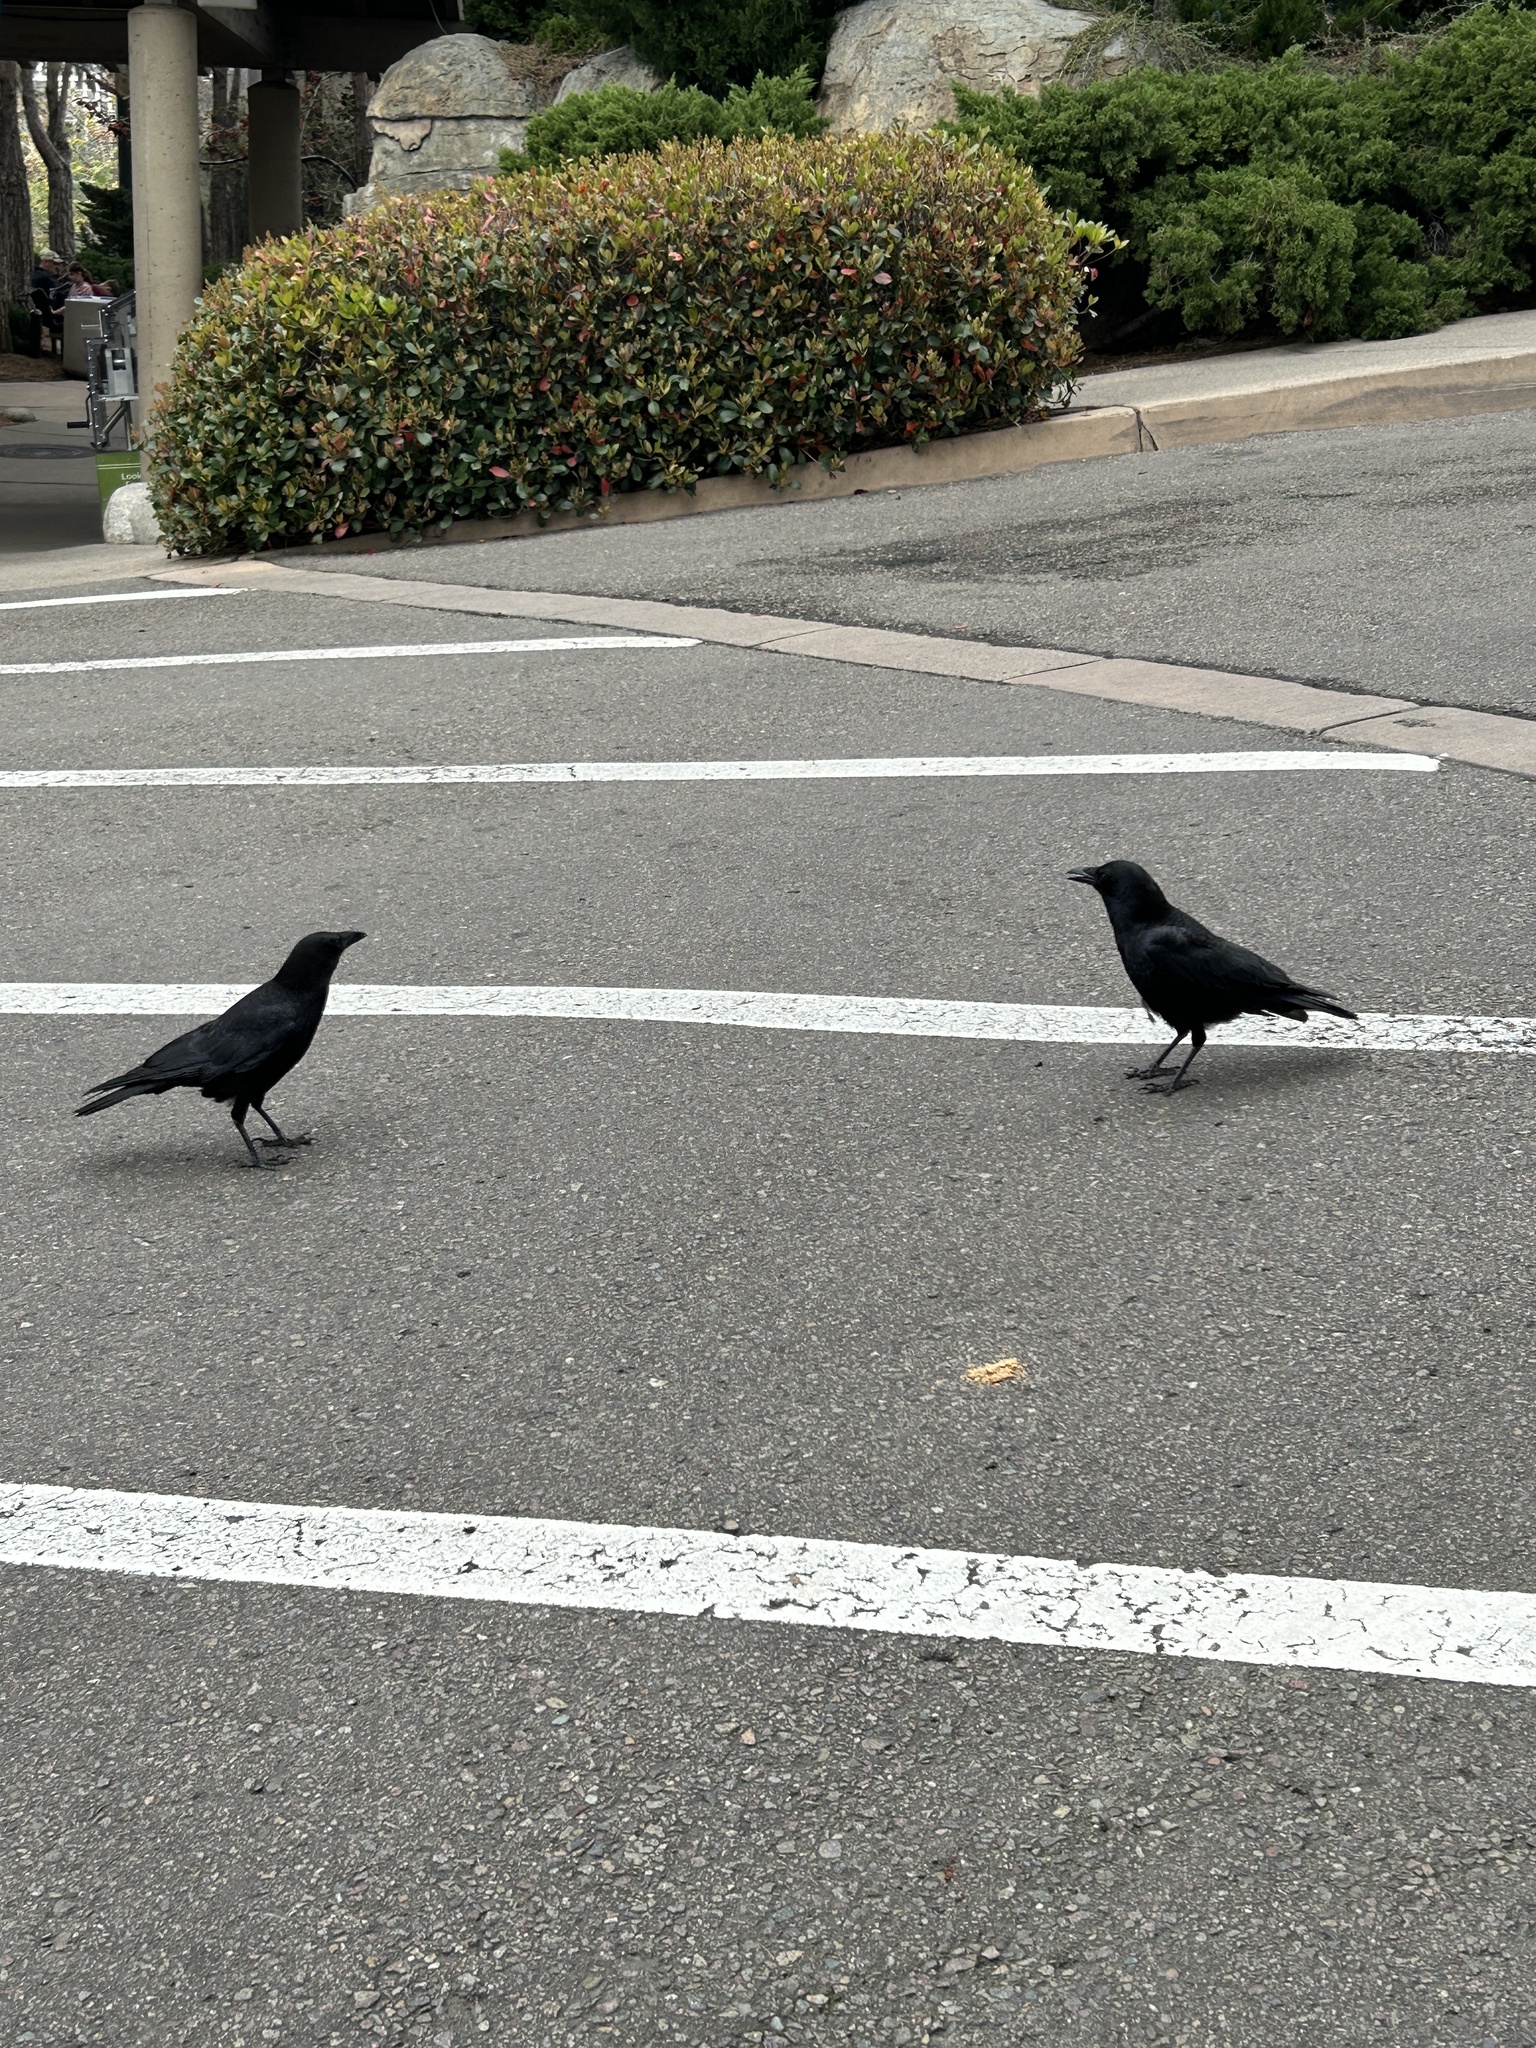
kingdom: Animalia
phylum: Chordata
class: Aves
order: Passeriformes
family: Corvidae
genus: Corvus
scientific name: Corvus brachyrhynchos
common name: American crow
